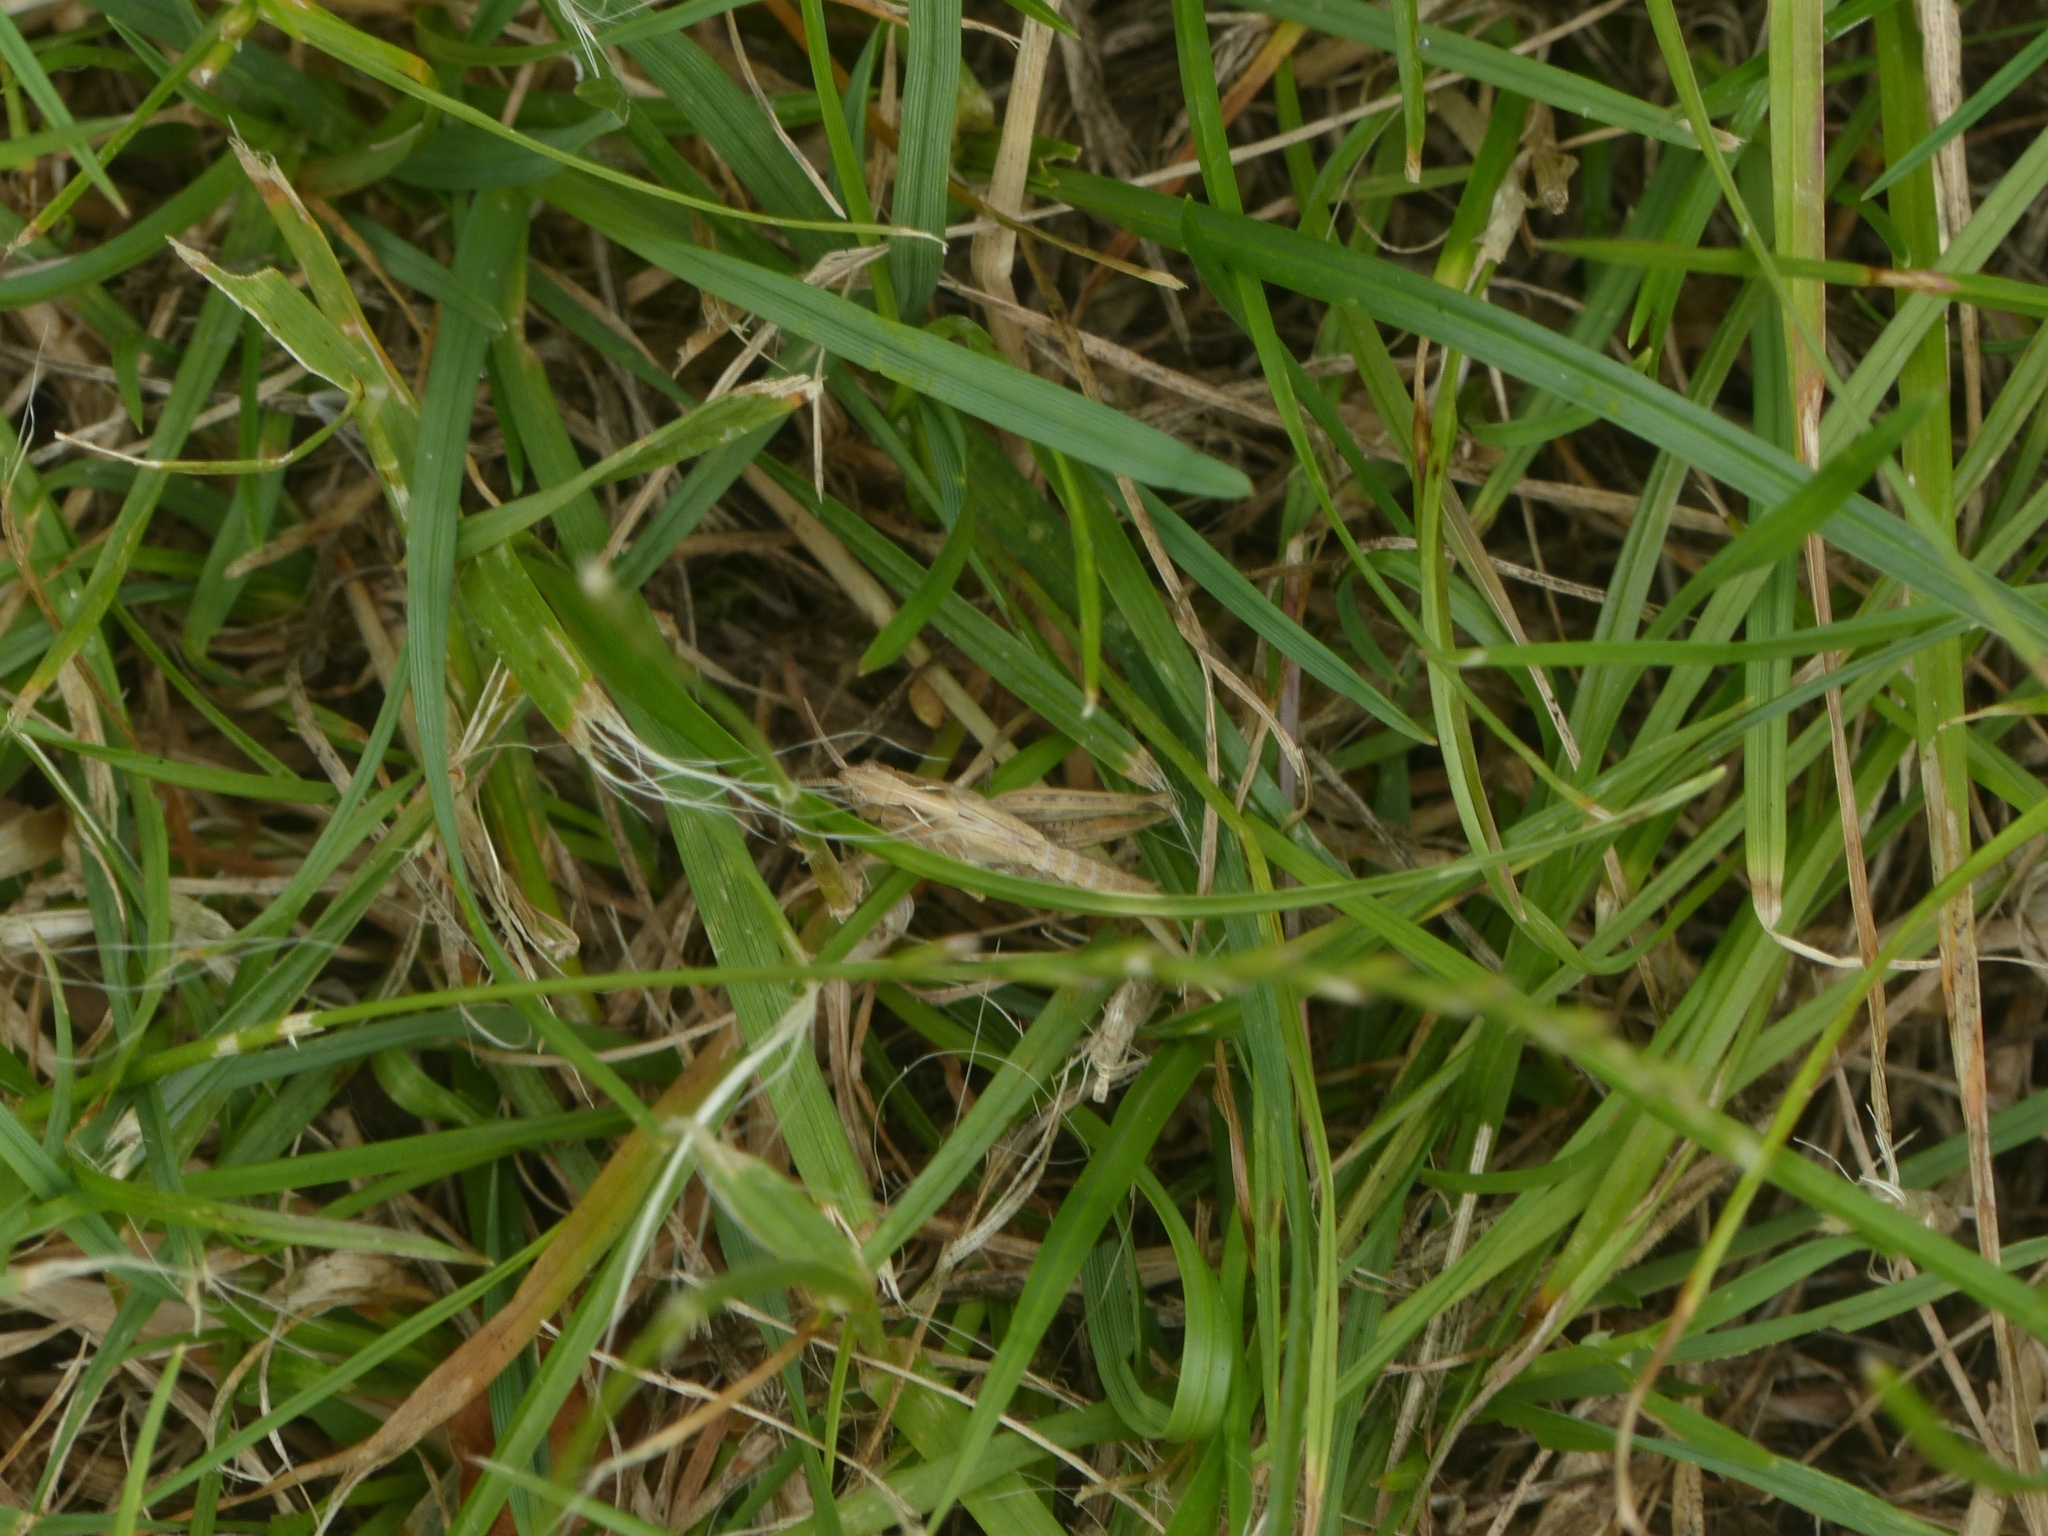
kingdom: Animalia
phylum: Arthropoda
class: Insecta
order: Orthoptera
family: Acrididae
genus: Chorthippus
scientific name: Chorthippus brunneus
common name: Field grasshopper
